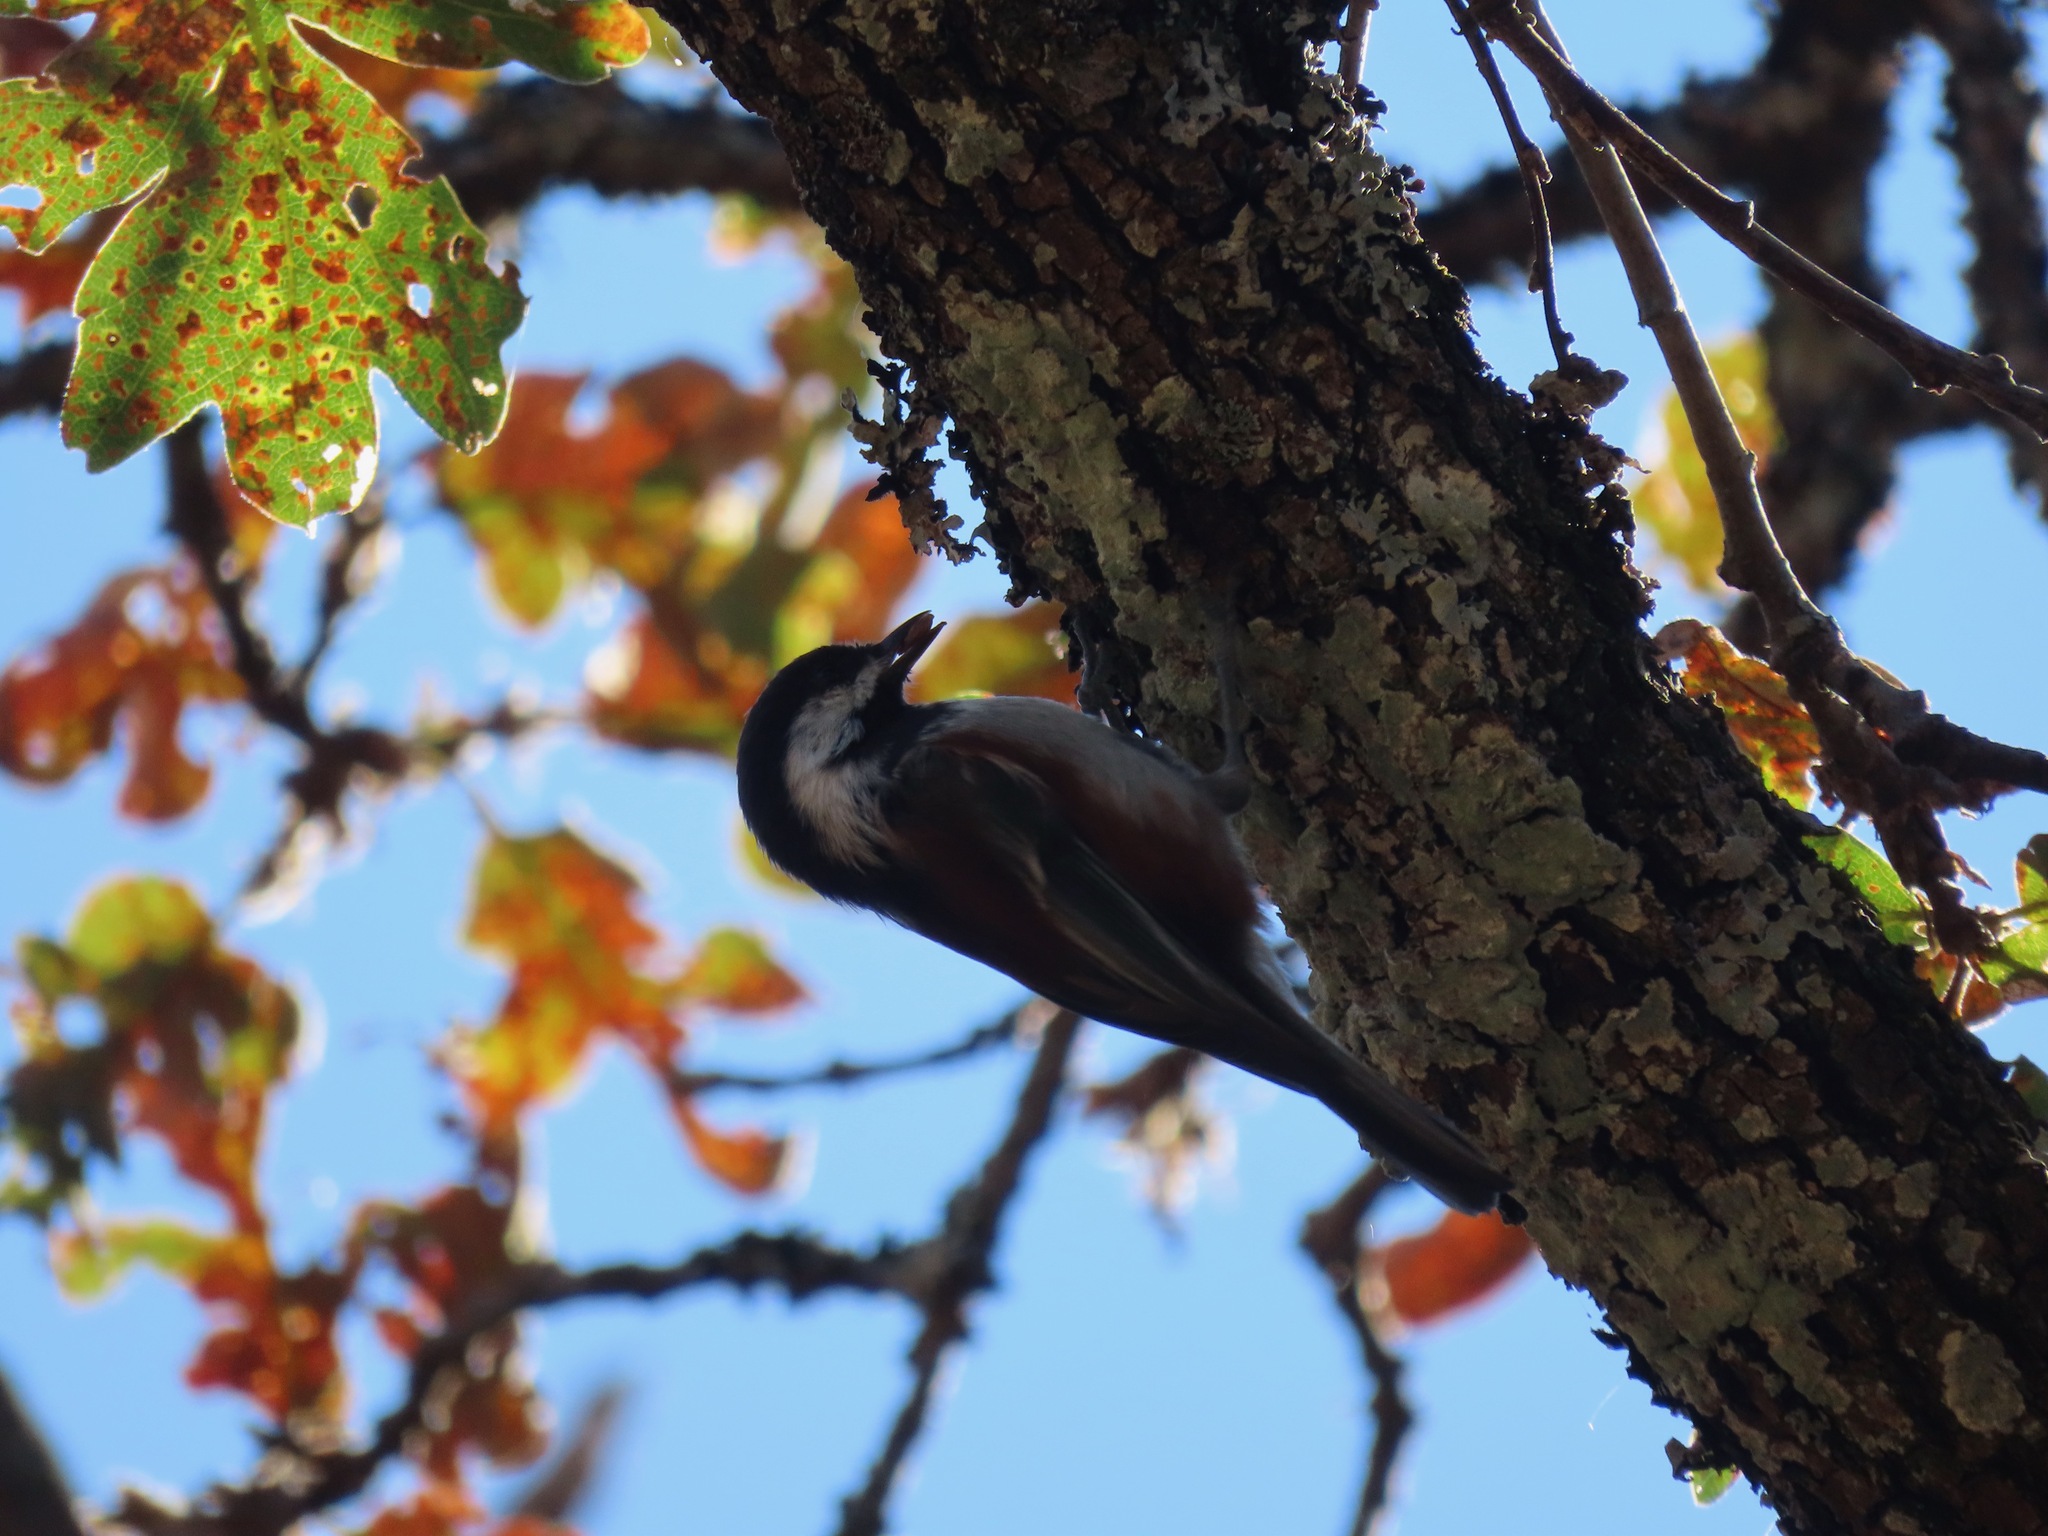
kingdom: Animalia
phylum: Chordata
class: Aves
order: Passeriformes
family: Paridae
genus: Poecile
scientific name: Poecile rufescens
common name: Chestnut-backed chickadee
